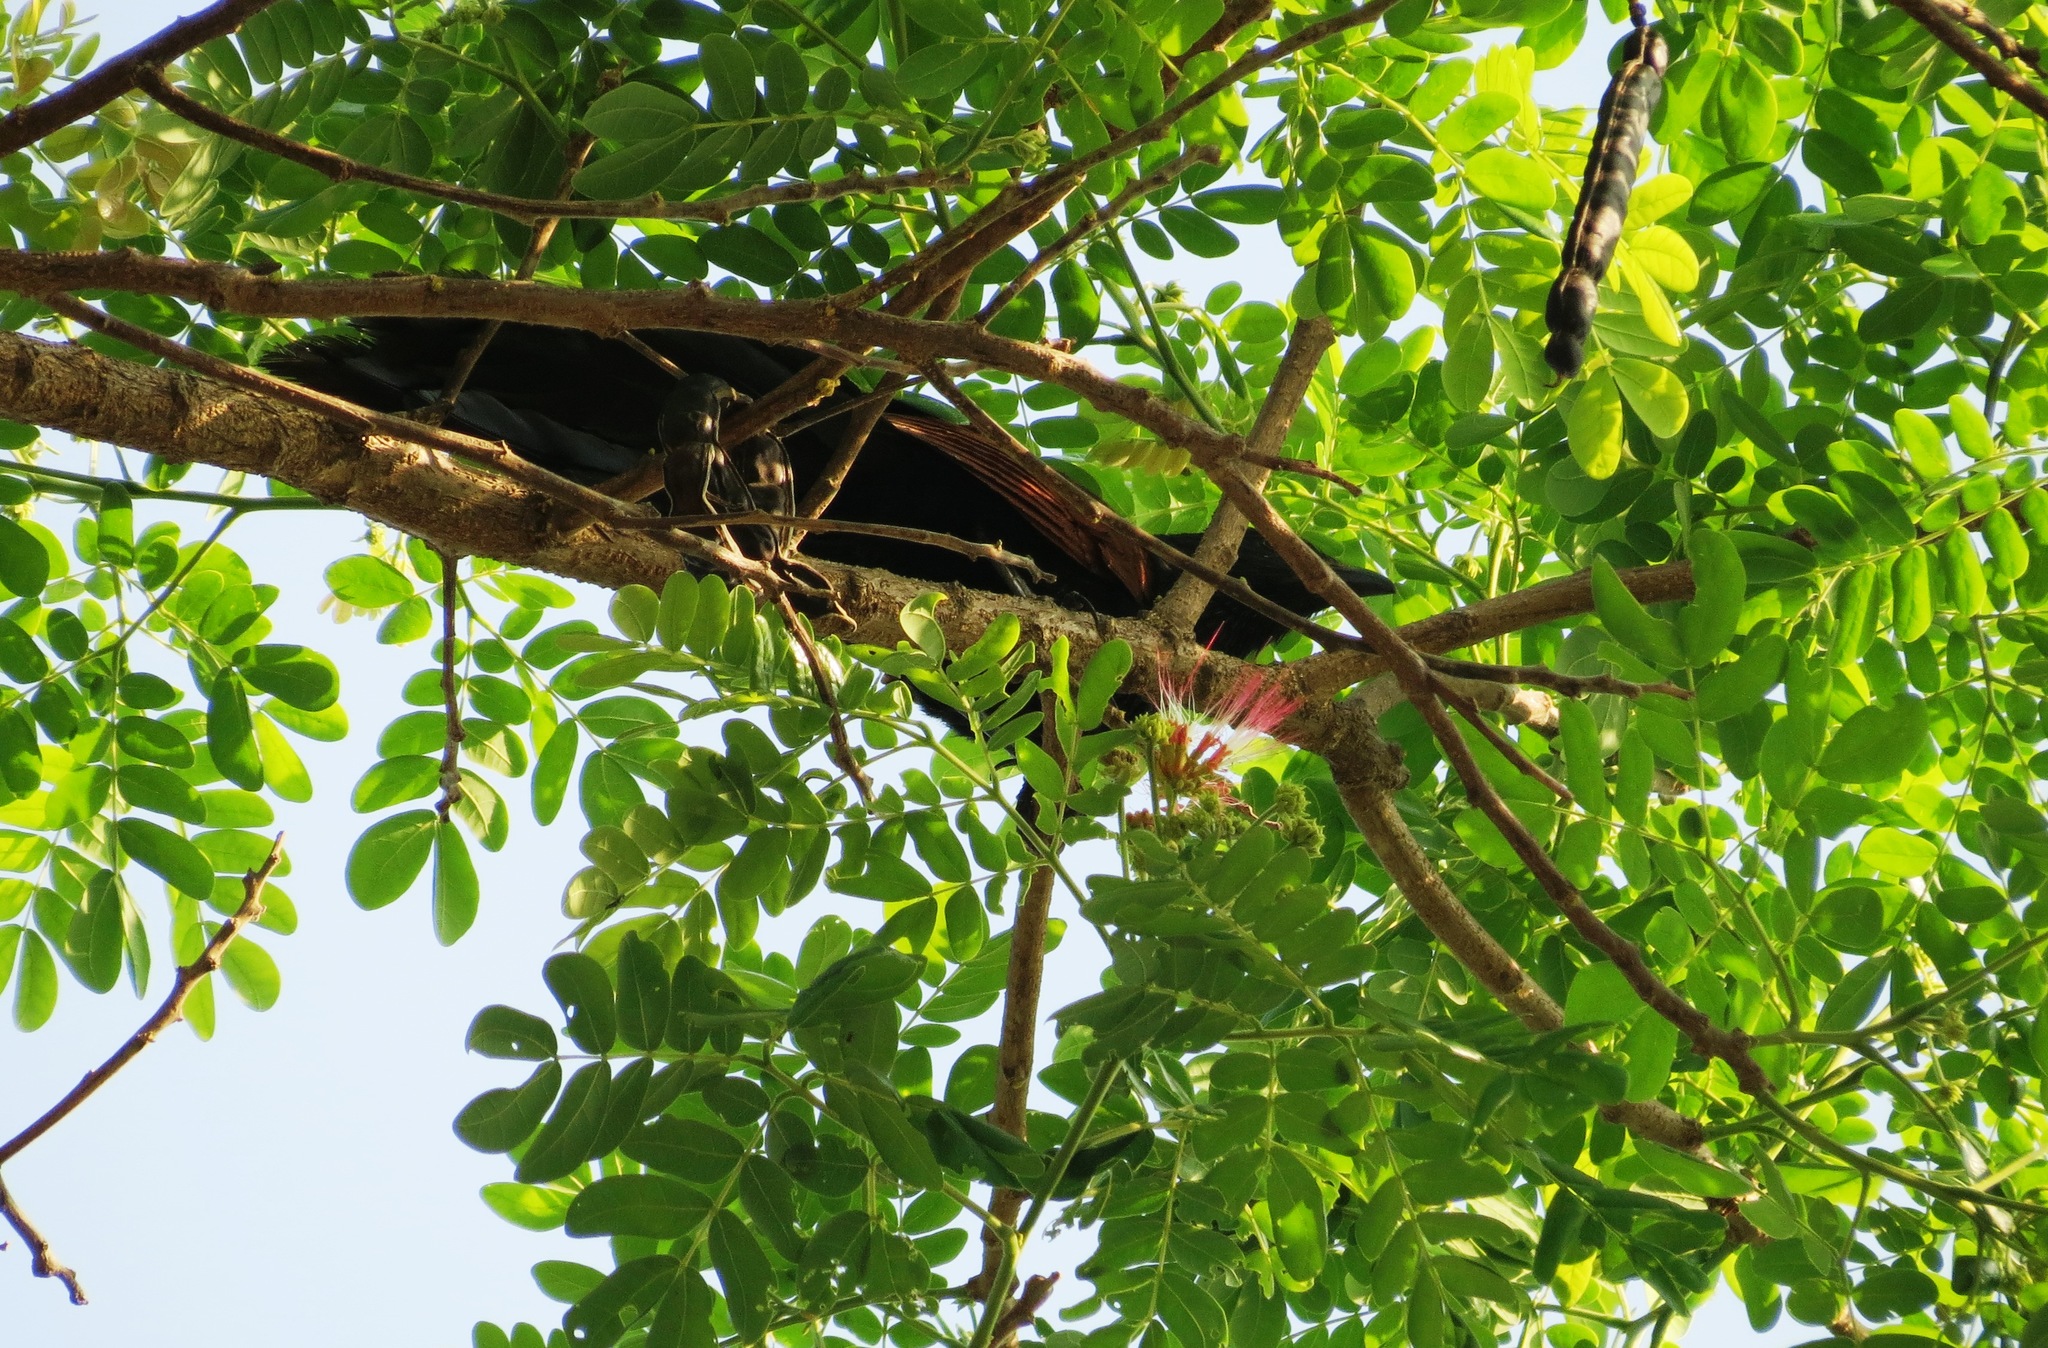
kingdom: Animalia
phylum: Chordata
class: Aves
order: Cuculiformes
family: Cuculidae
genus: Centropus
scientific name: Centropus viridis
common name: Philippine coucal
